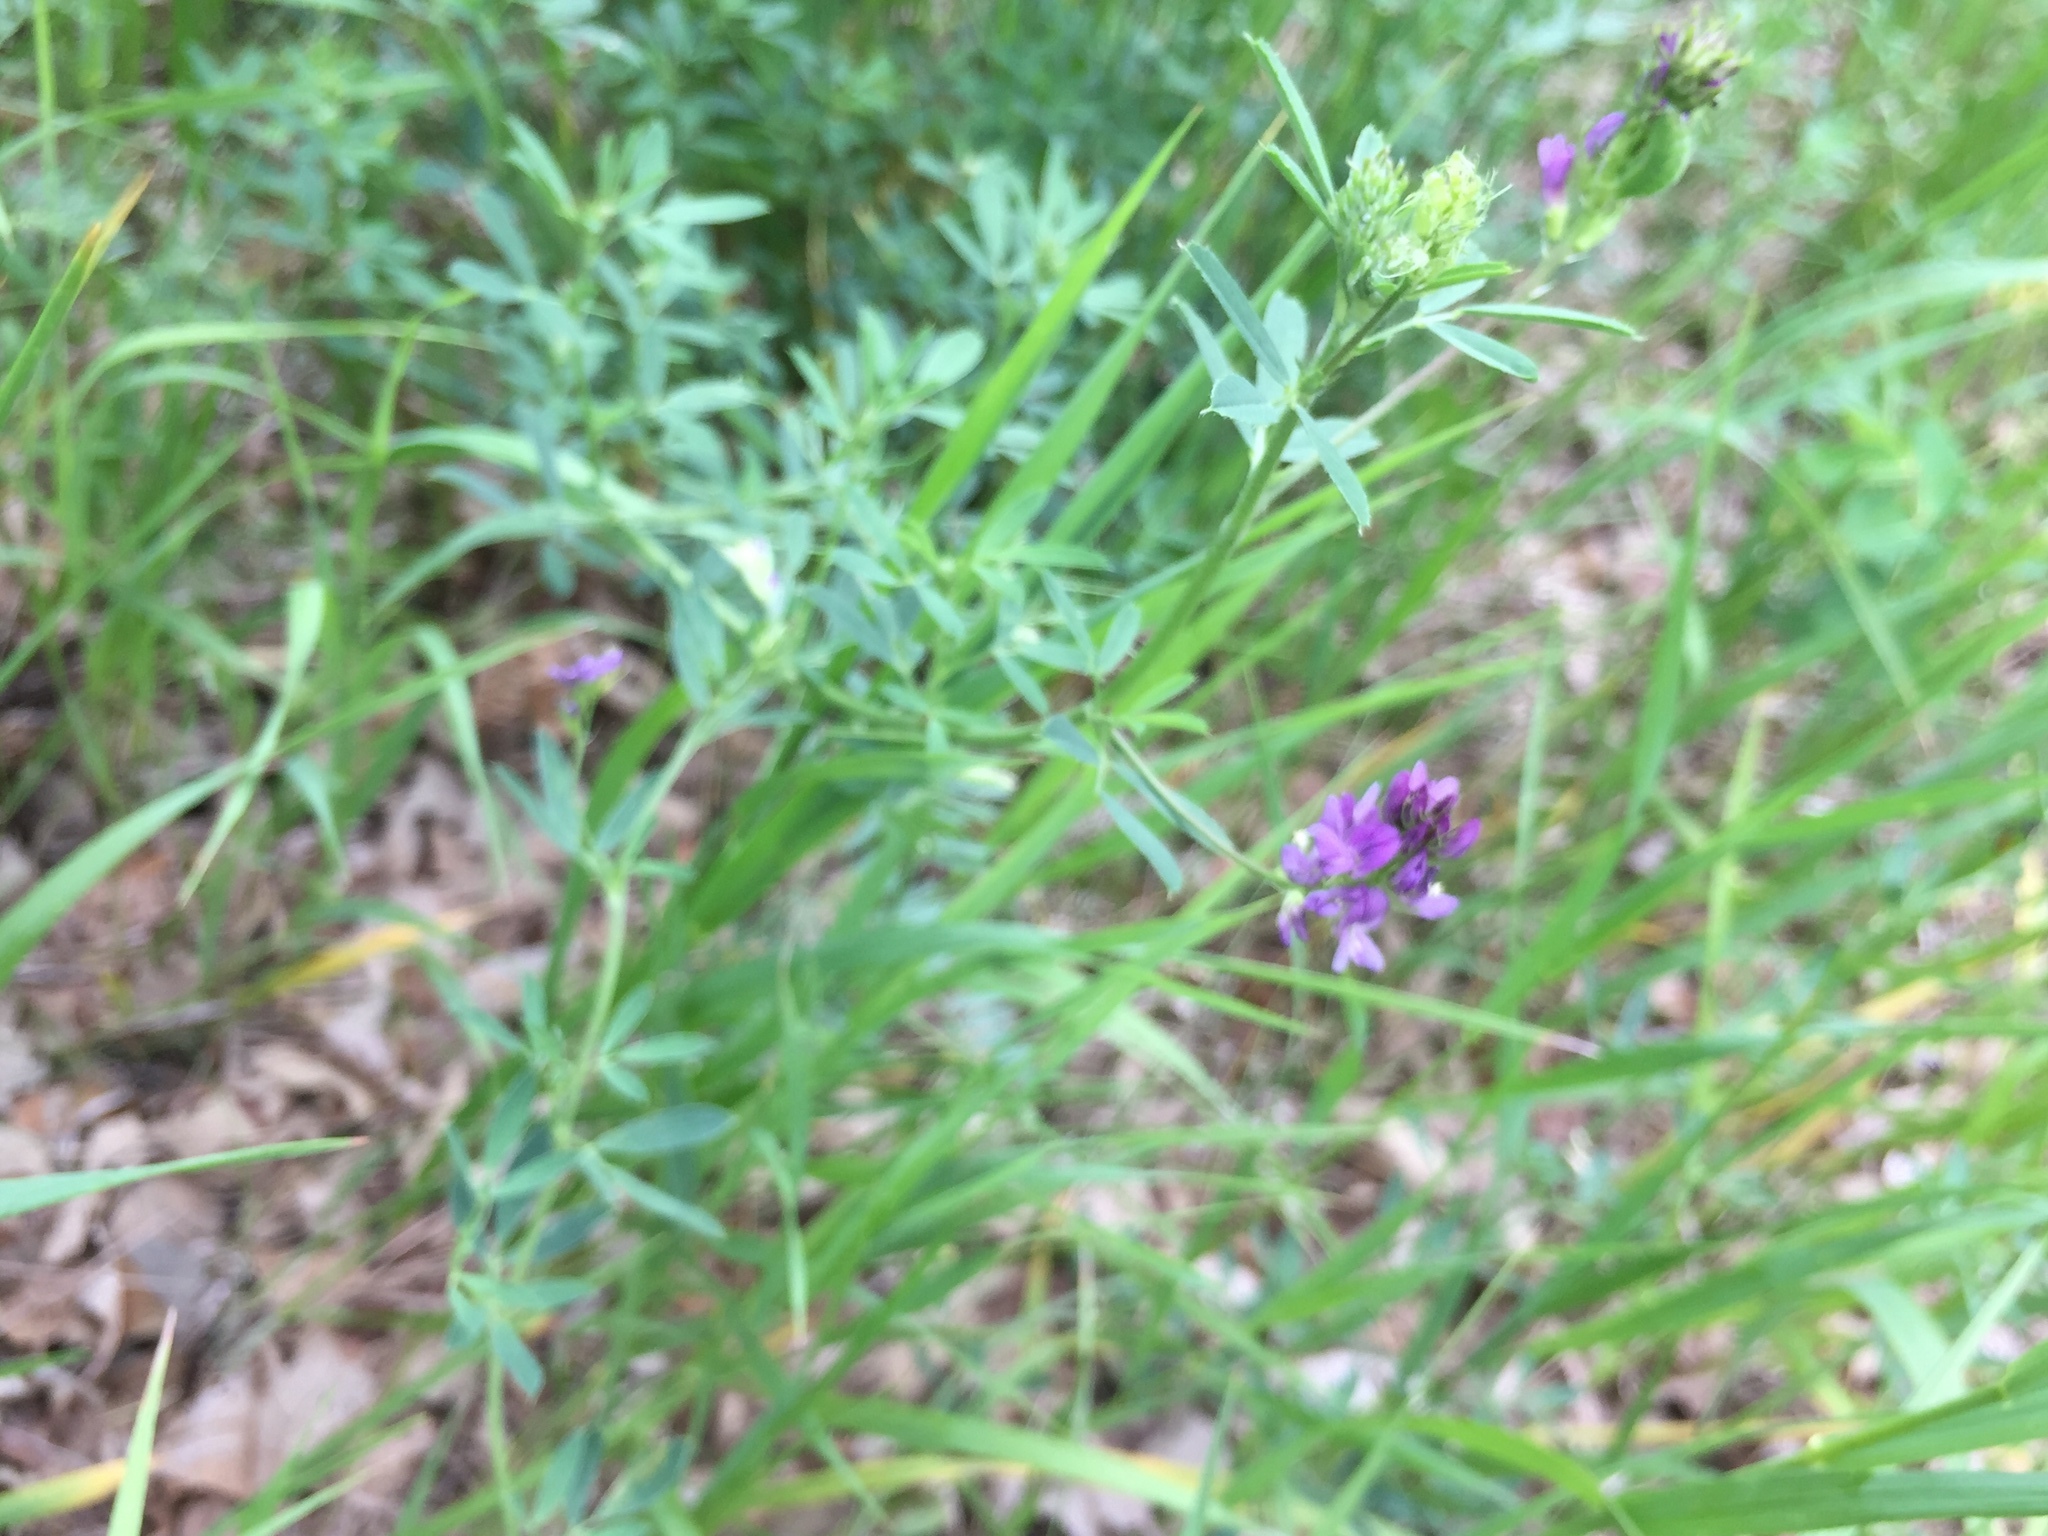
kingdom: Plantae
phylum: Tracheophyta
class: Magnoliopsida
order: Fabales
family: Fabaceae
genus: Medicago
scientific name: Medicago sativa
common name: Alfalfa
